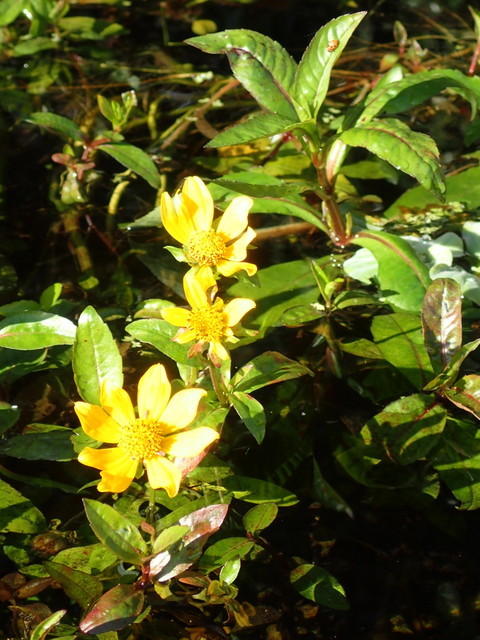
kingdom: Plantae
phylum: Tracheophyta
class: Magnoliopsida
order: Asterales
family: Asteraceae
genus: Bidens
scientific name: Bidens laevis
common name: Larger bur-marigold
